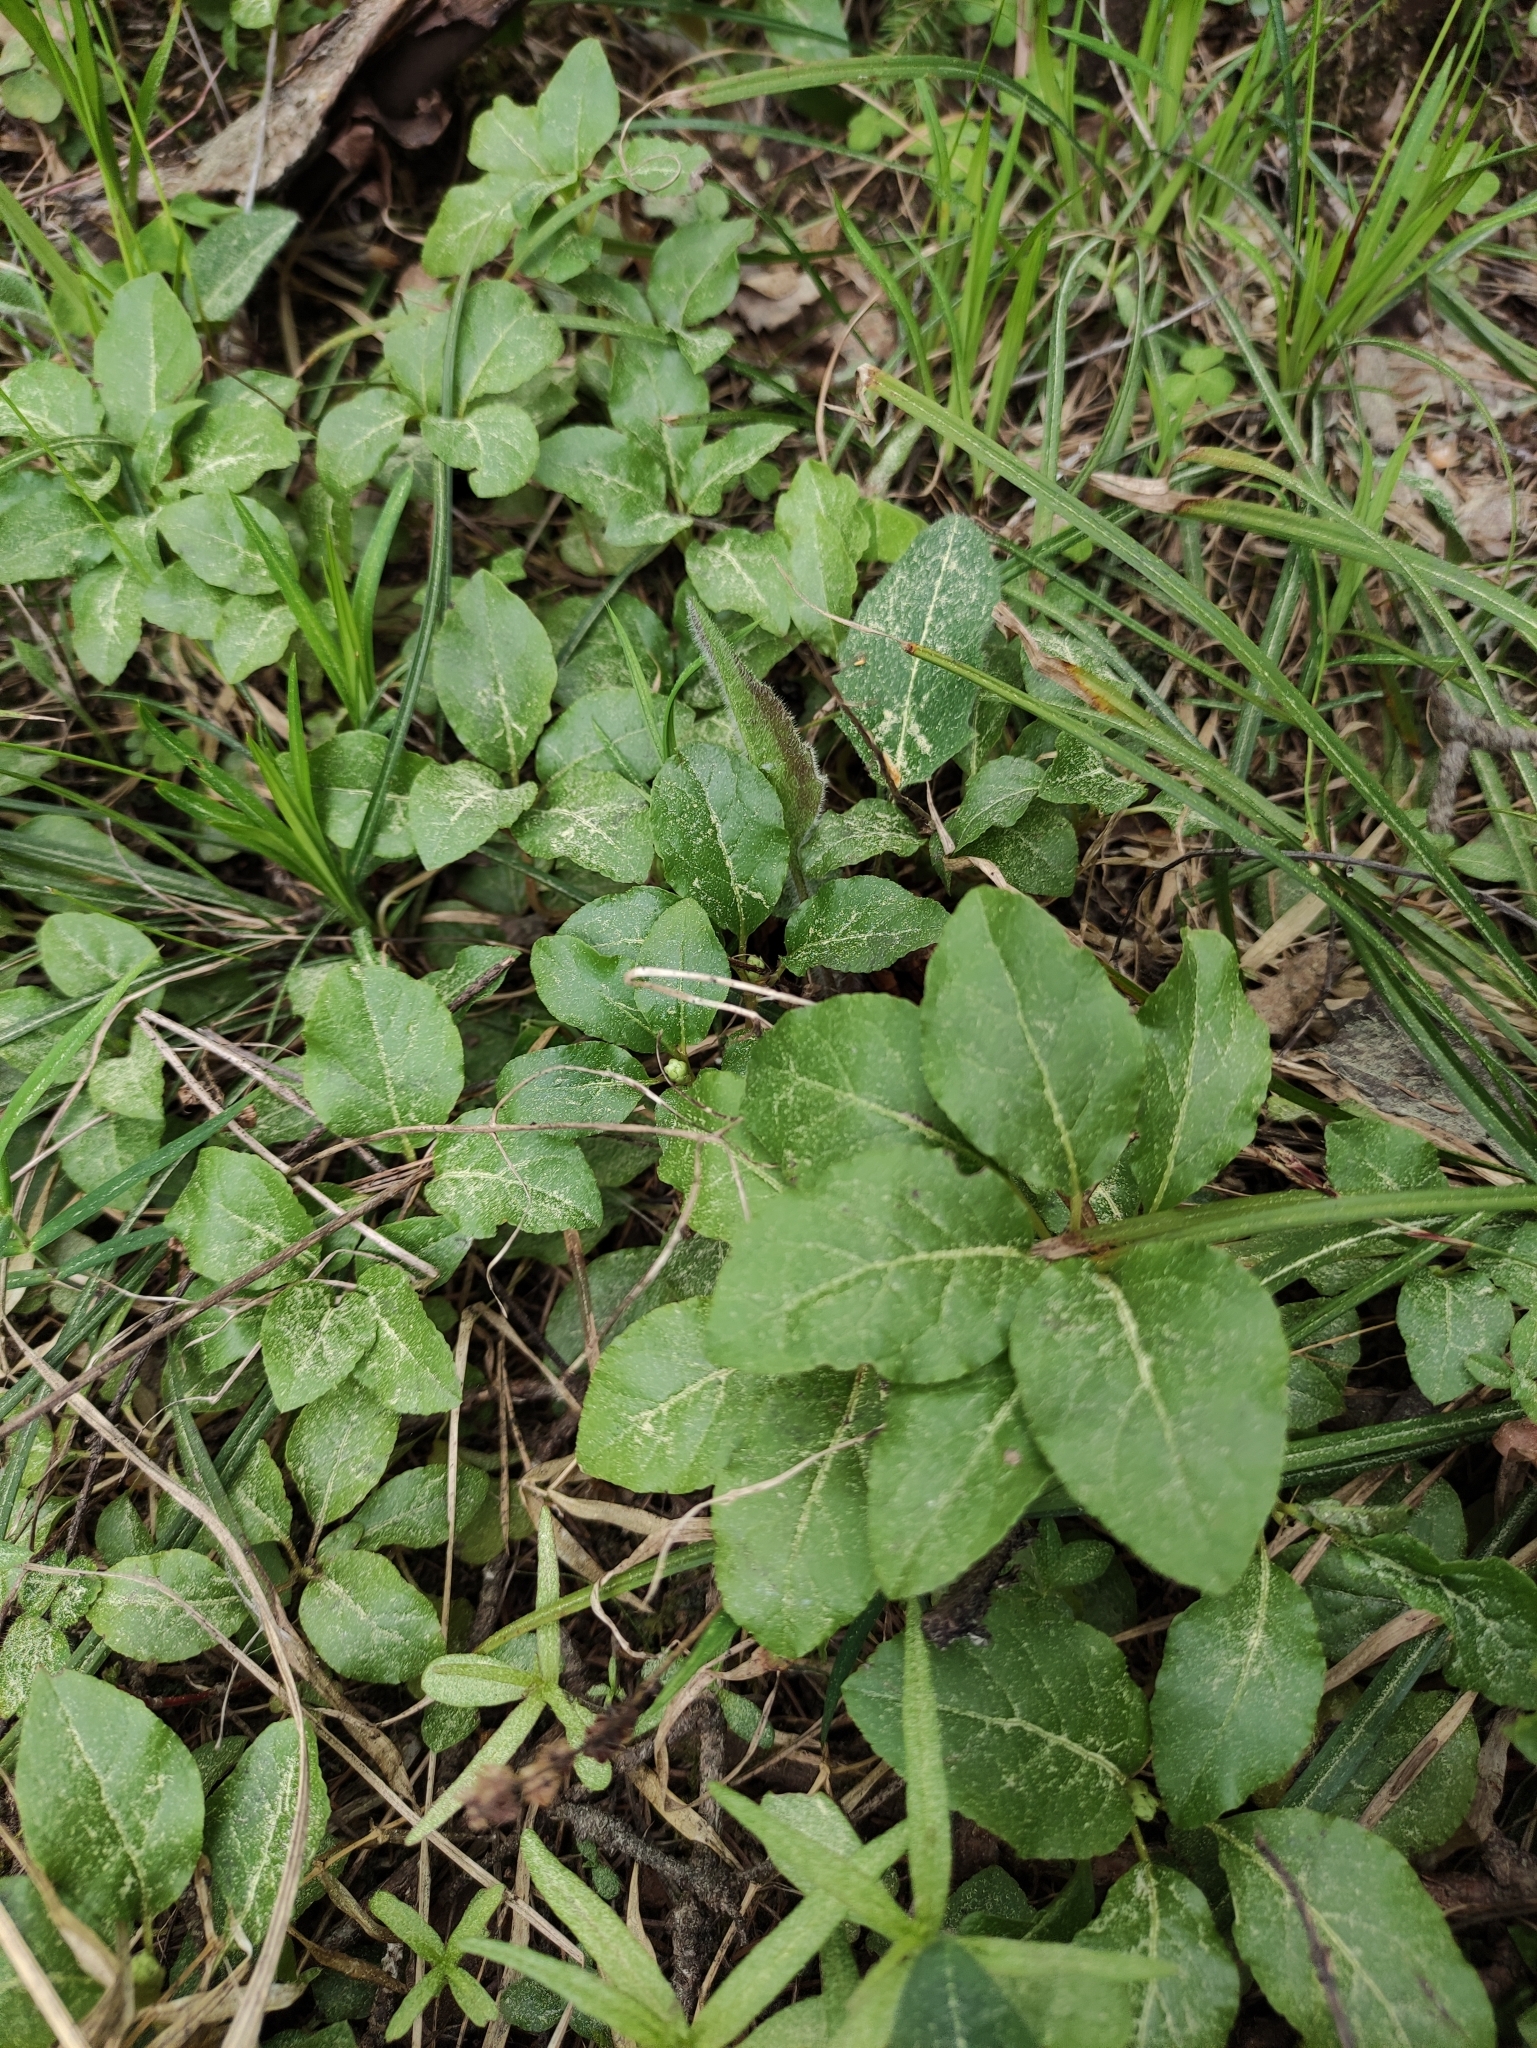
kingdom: Plantae
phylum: Tracheophyta
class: Magnoliopsida
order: Ericales
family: Ericaceae
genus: Orthilia
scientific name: Orthilia secunda
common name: One-sided orthilia
